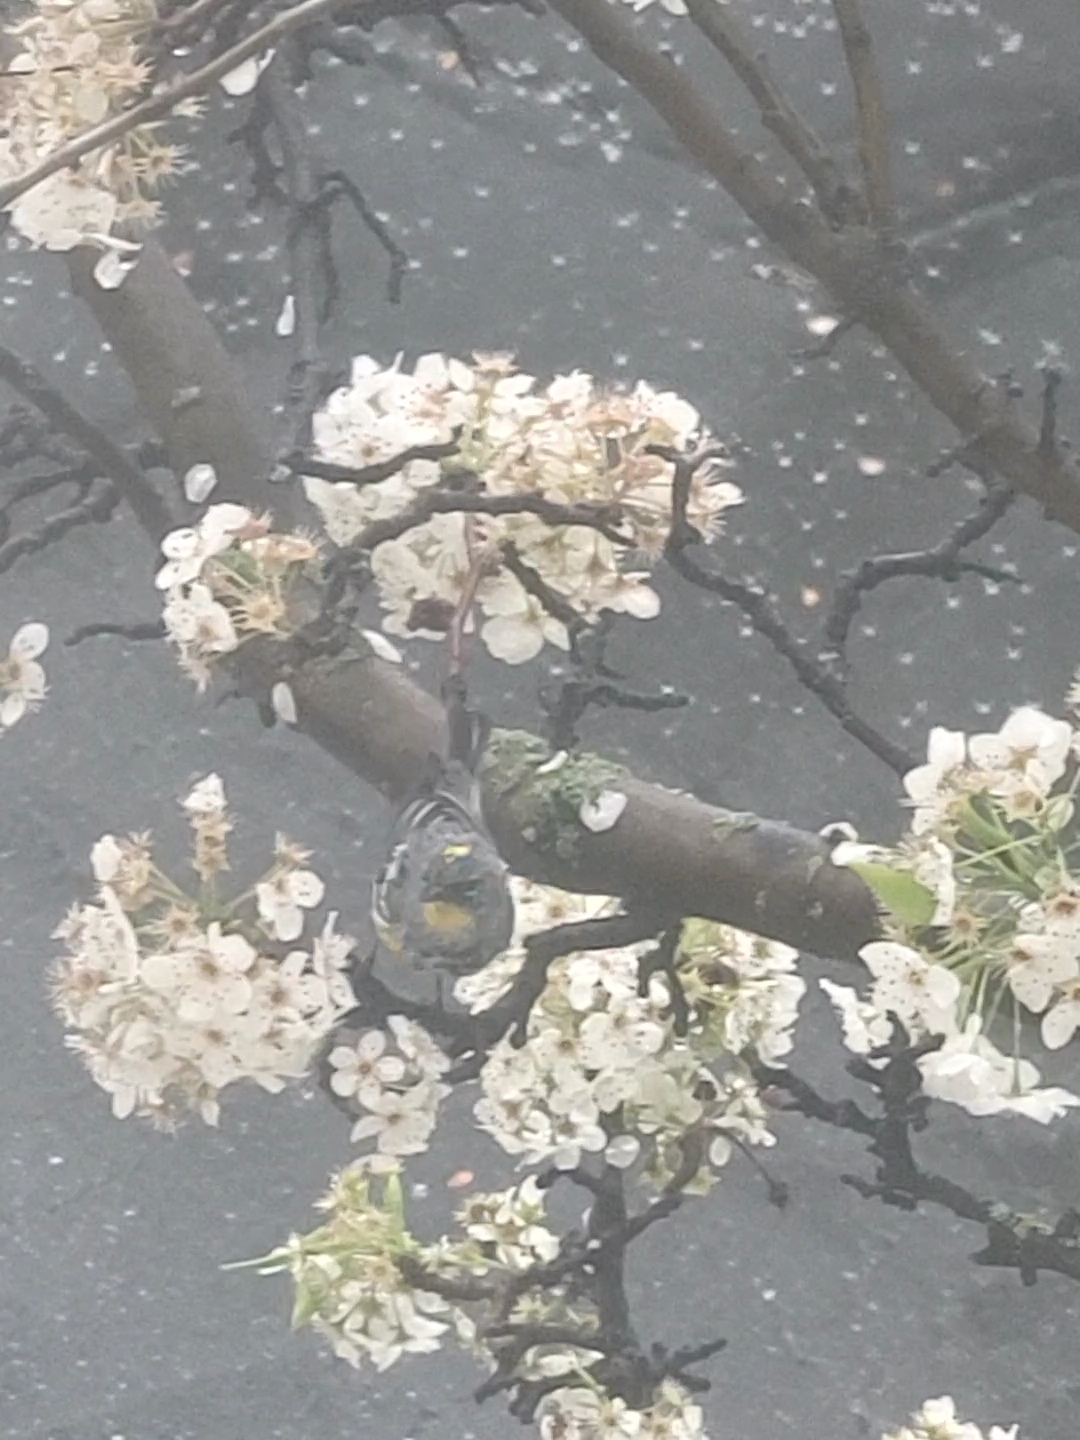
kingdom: Animalia
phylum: Chordata
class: Aves
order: Passeriformes
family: Parulidae
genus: Setophaga
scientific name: Setophaga coronata
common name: Myrtle warbler
